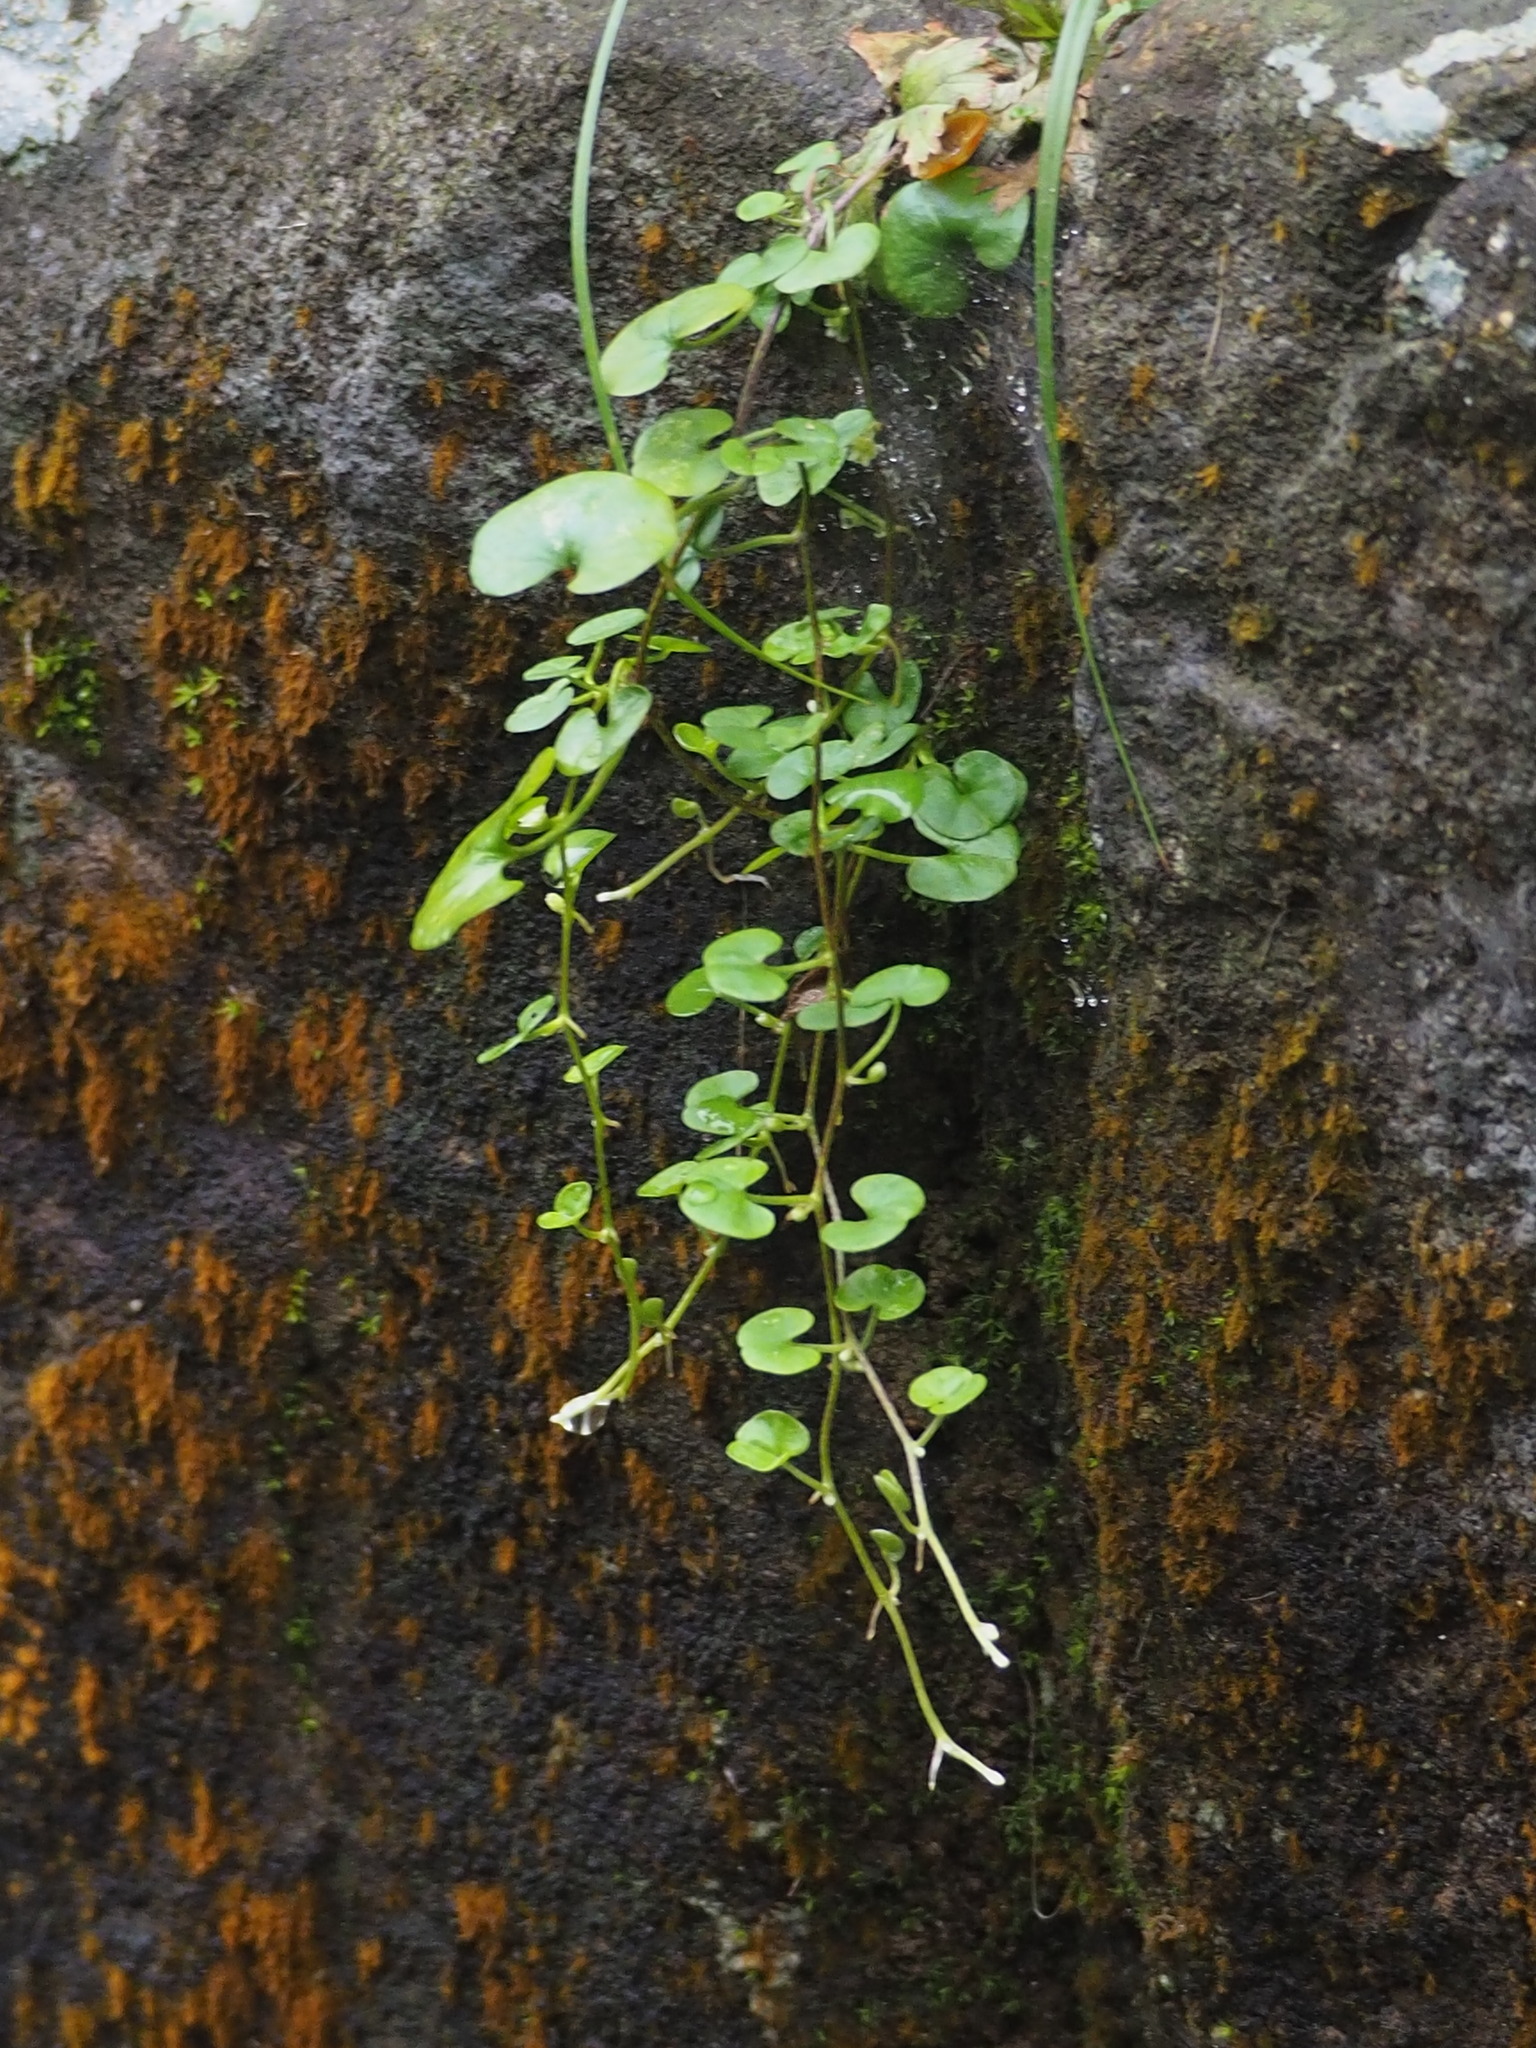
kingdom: Plantae
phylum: Tracheophyta
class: Magnoliopsida
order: Solanales
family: Convolvulaceae
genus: Dichondra
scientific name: Dichondra micrantha
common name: Kidneyweed
